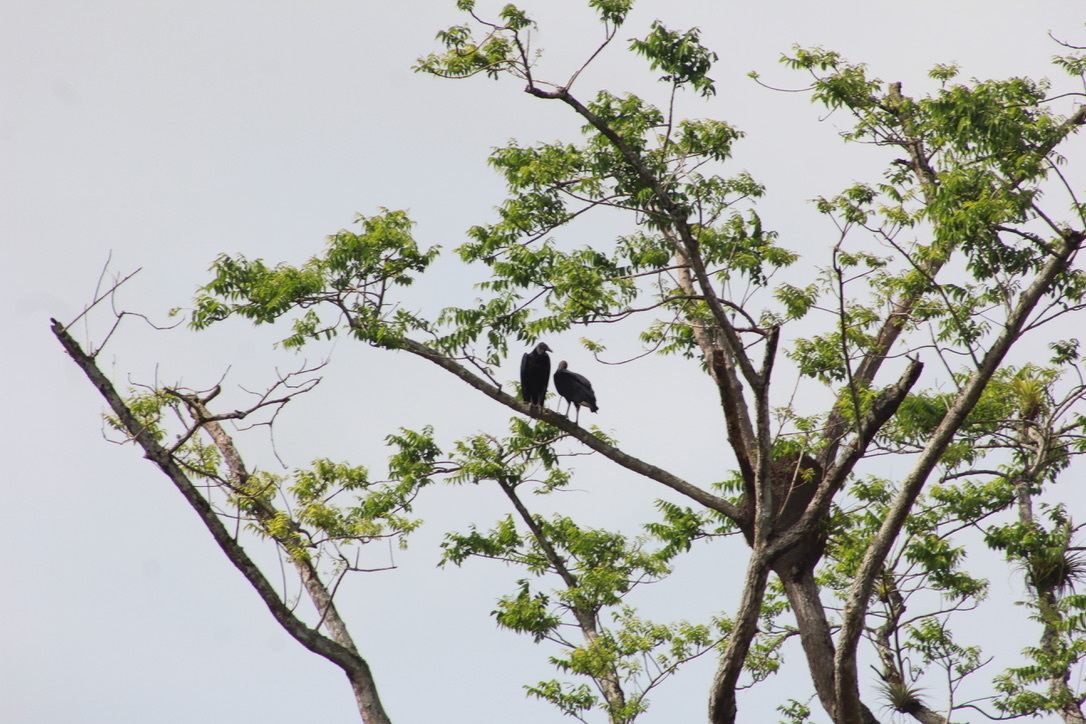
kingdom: Animalia
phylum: Chordata
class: Aves
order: Accipitriformes
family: Cathartidae
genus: Coragyps
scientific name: Coragyps atratus
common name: Black vulture
